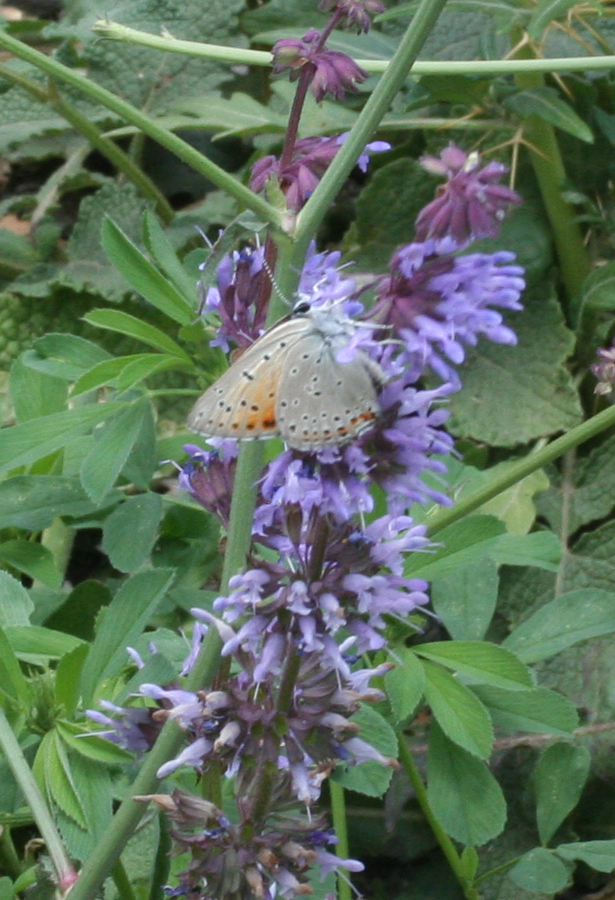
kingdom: Animalia
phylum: Arthropoda
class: Insecta
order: Lepidoptera
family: Lycaenidae
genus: Lycaena
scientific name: Lycaena alciphron
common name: Purple-shot copper
